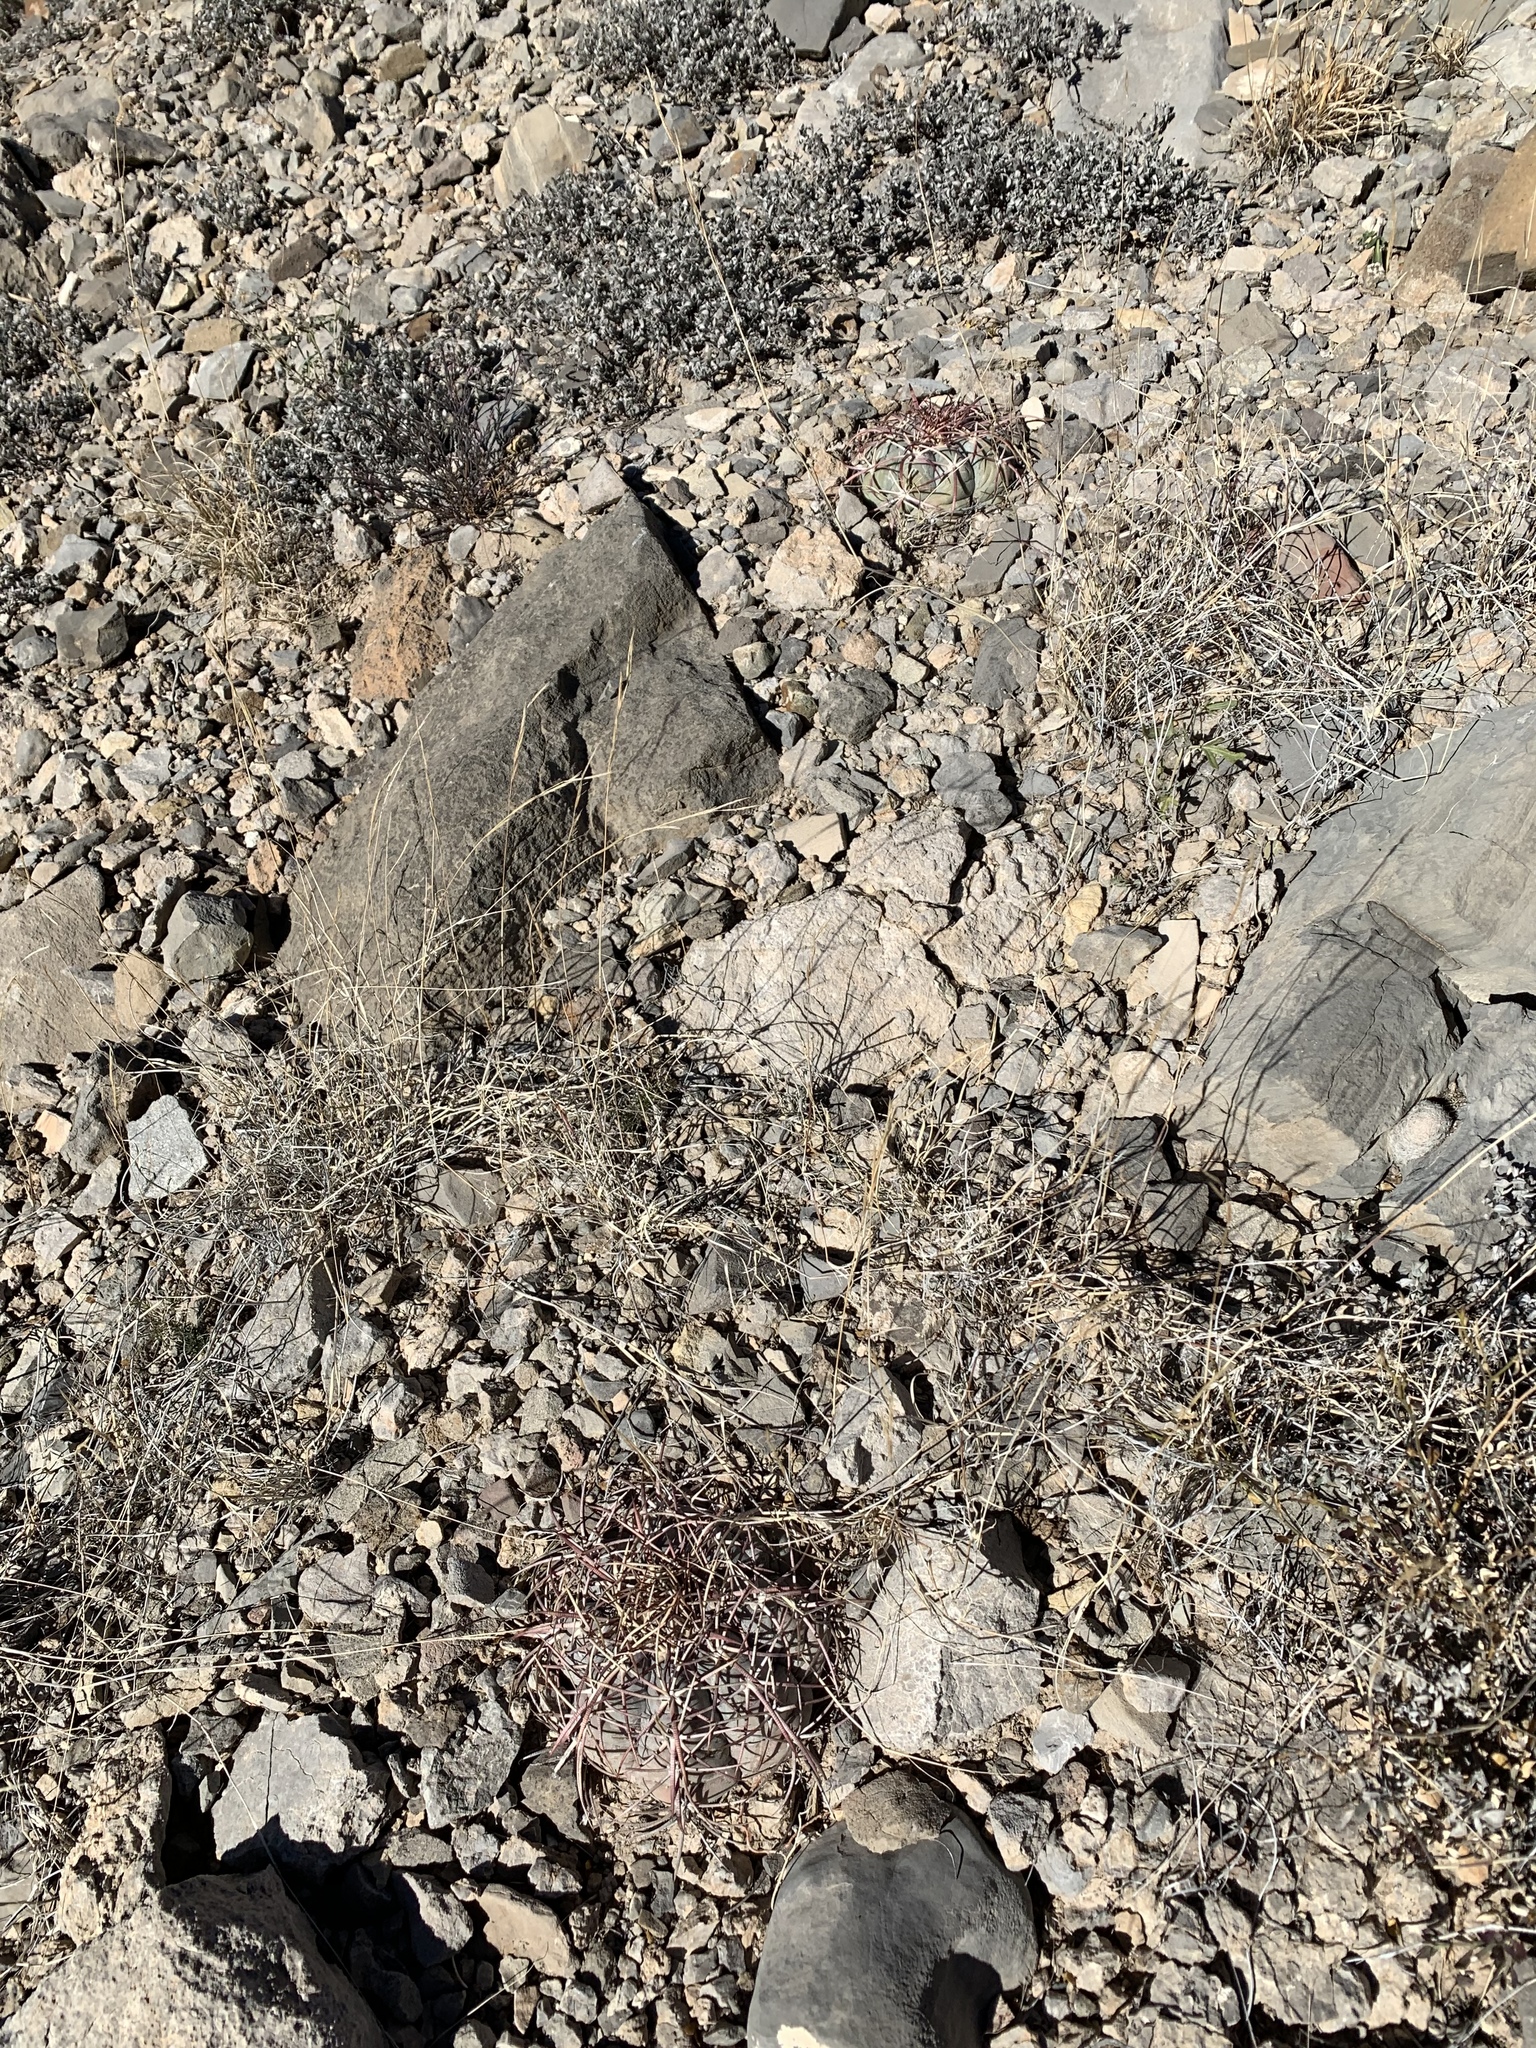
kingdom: Plantae
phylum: Tracheophyta
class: Magnoliopsida
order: Caryophyllales
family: Cactaceae
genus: Echinocactus
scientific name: Echinocactus horizonthalonius
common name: Devilshead
